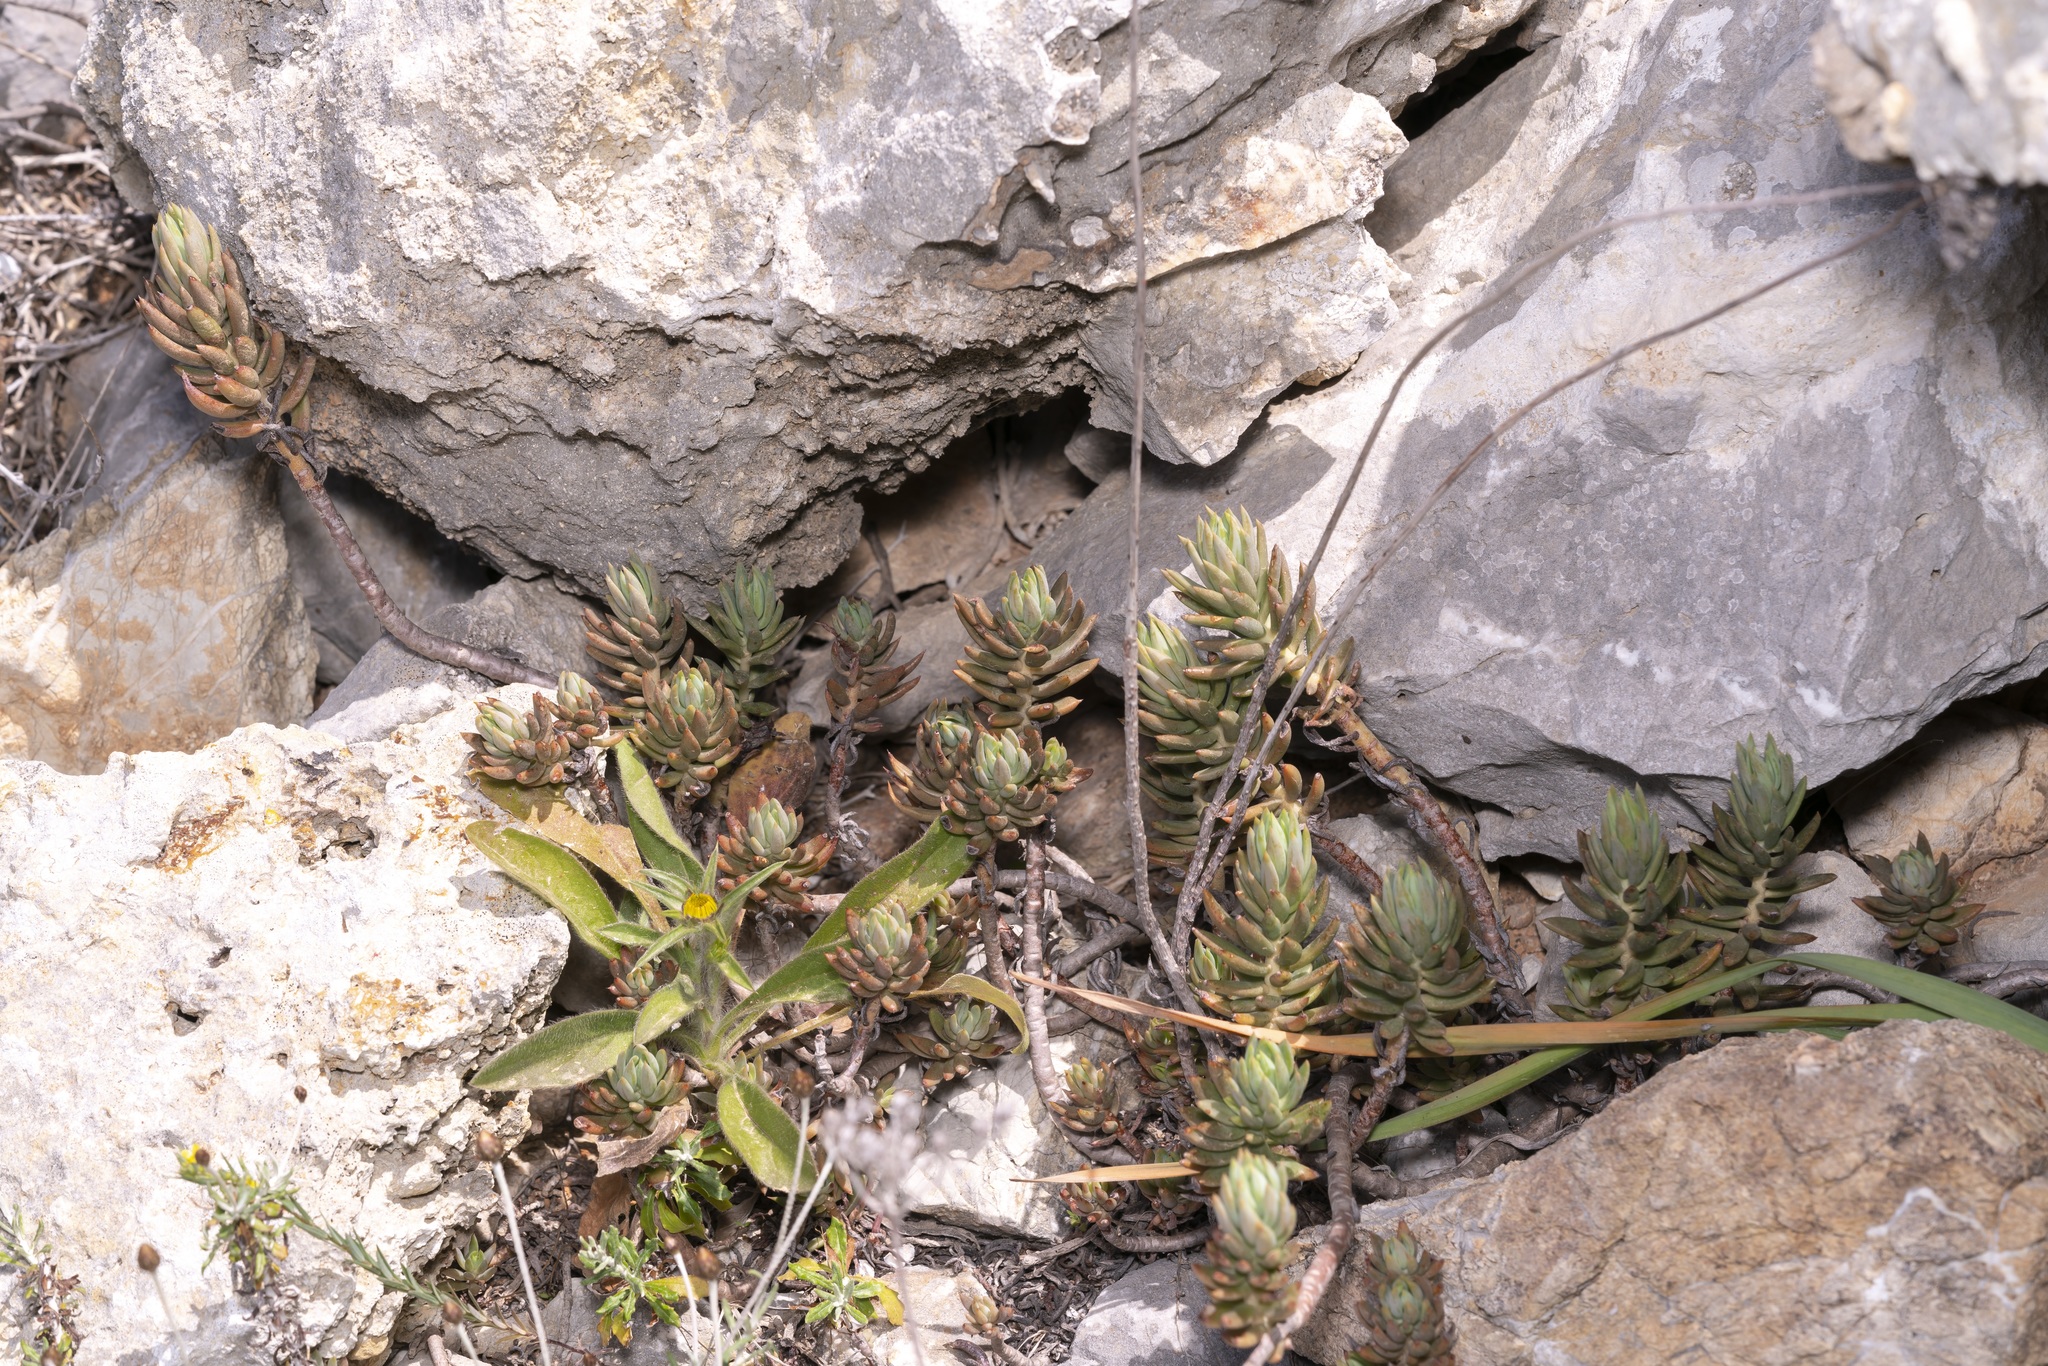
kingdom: Plantae
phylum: Tracheophyta
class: Magnoliopsida
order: Saxifragales
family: Crassulaceae
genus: Petrosedum
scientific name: Petrosedum sediforme
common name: Pale stonecrop
